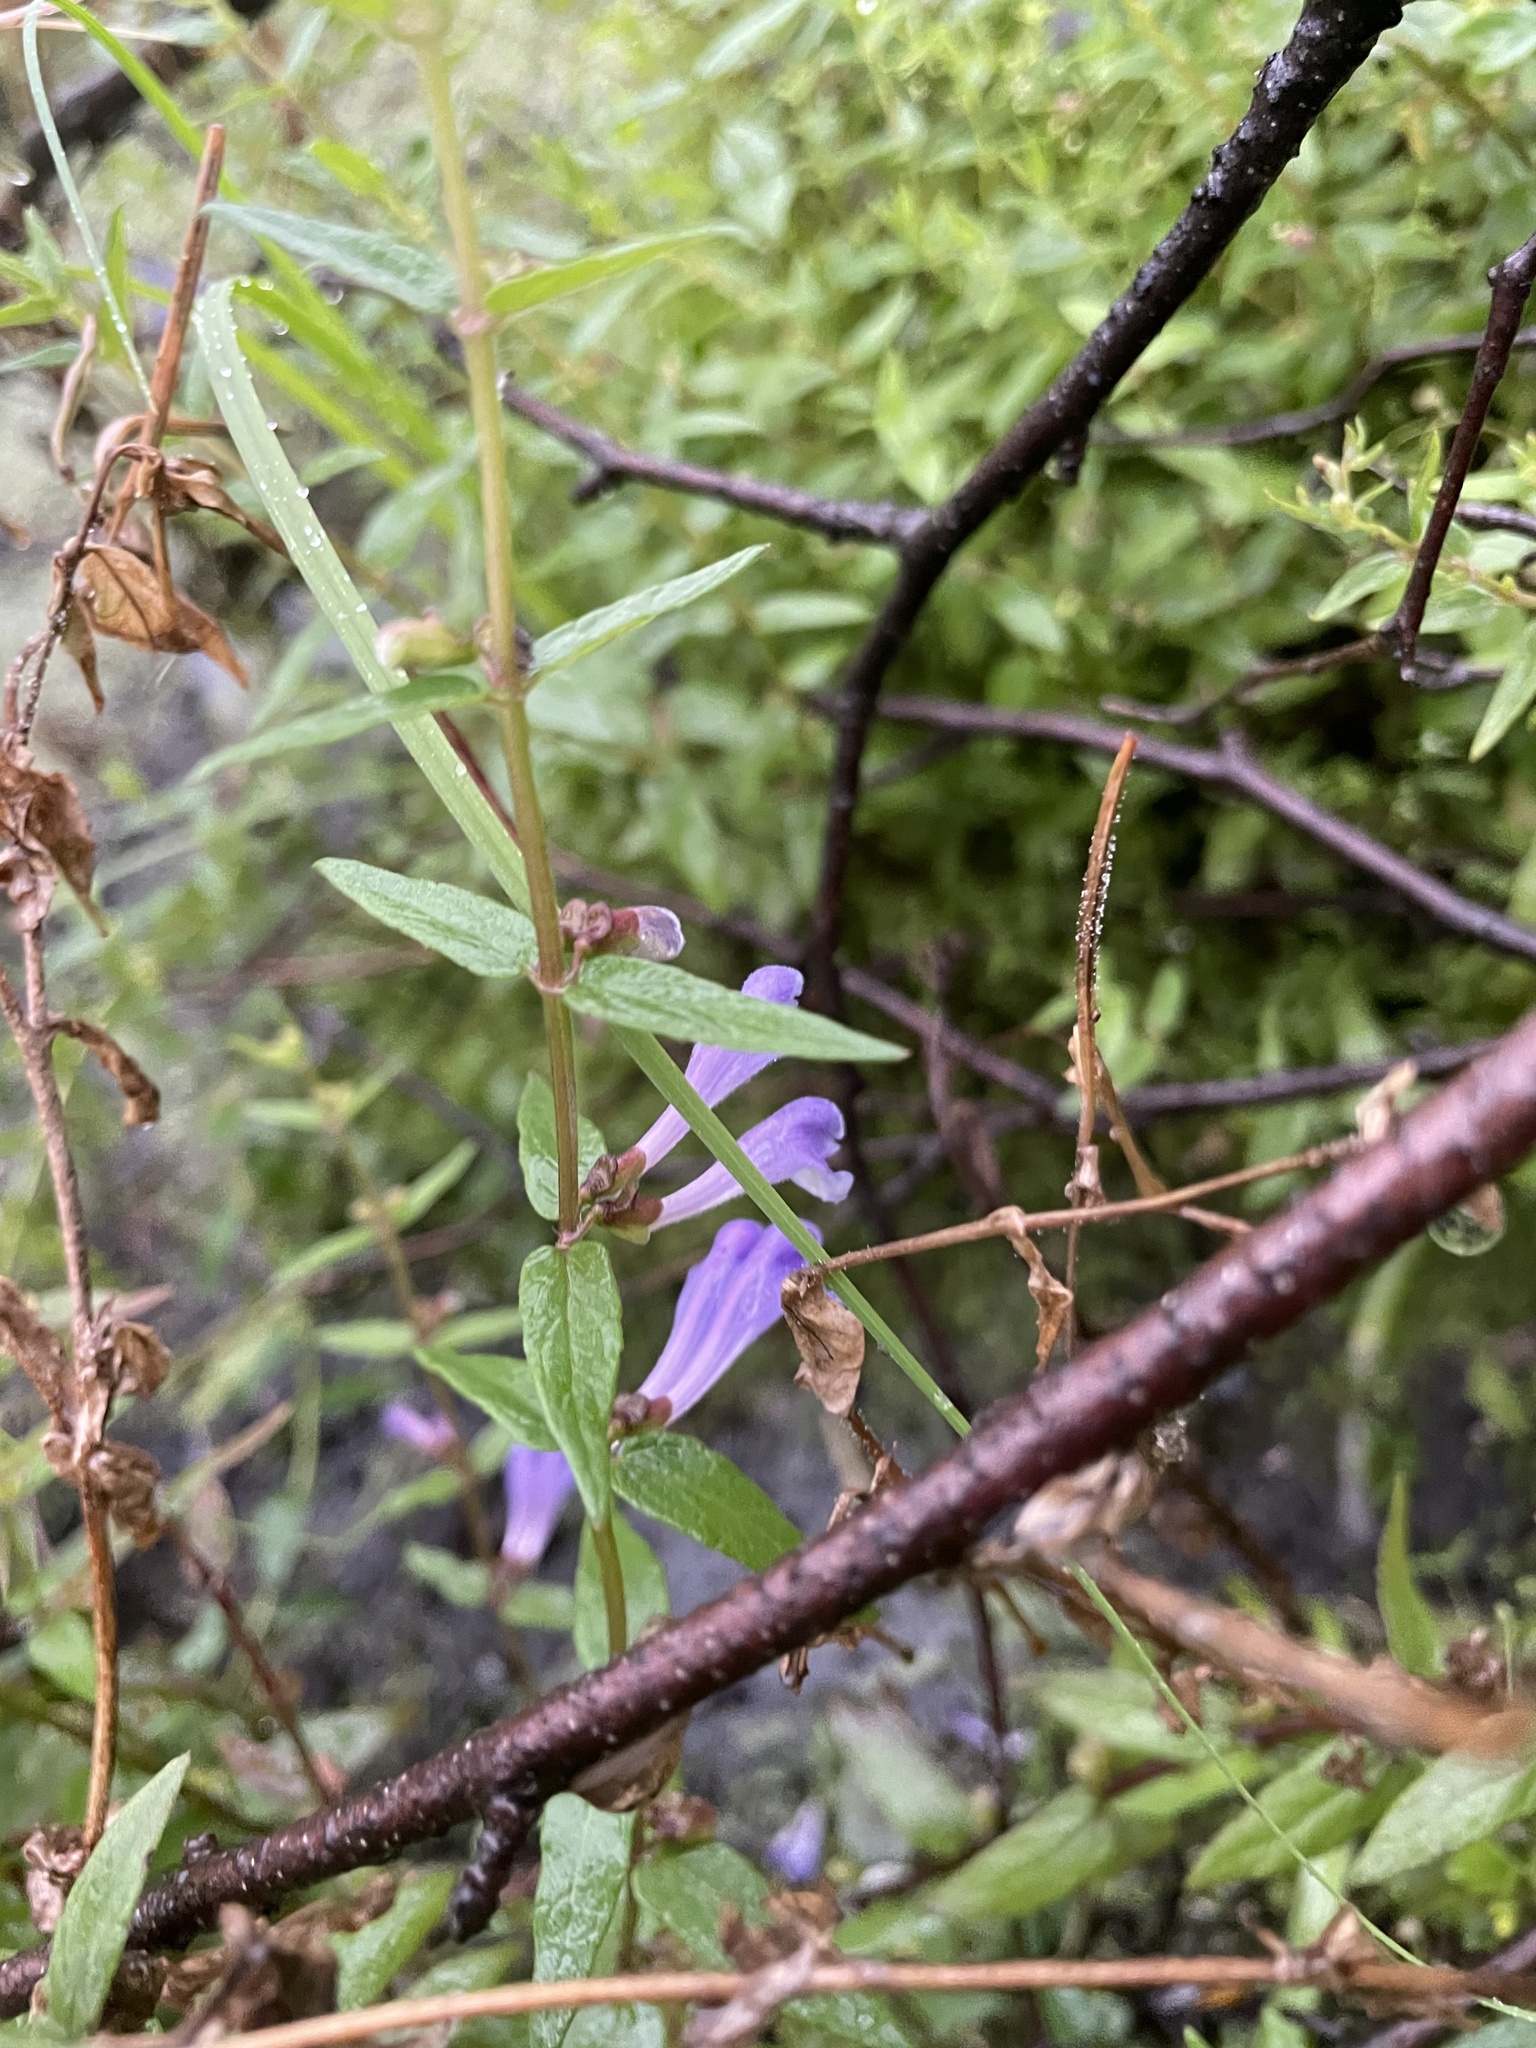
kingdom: Plantae
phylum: Tracheophyta
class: Magnoliopsida
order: Lamiales
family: Lamiaceae
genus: Scutellaria
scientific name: Scutellaria galericulata
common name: Skullcap
